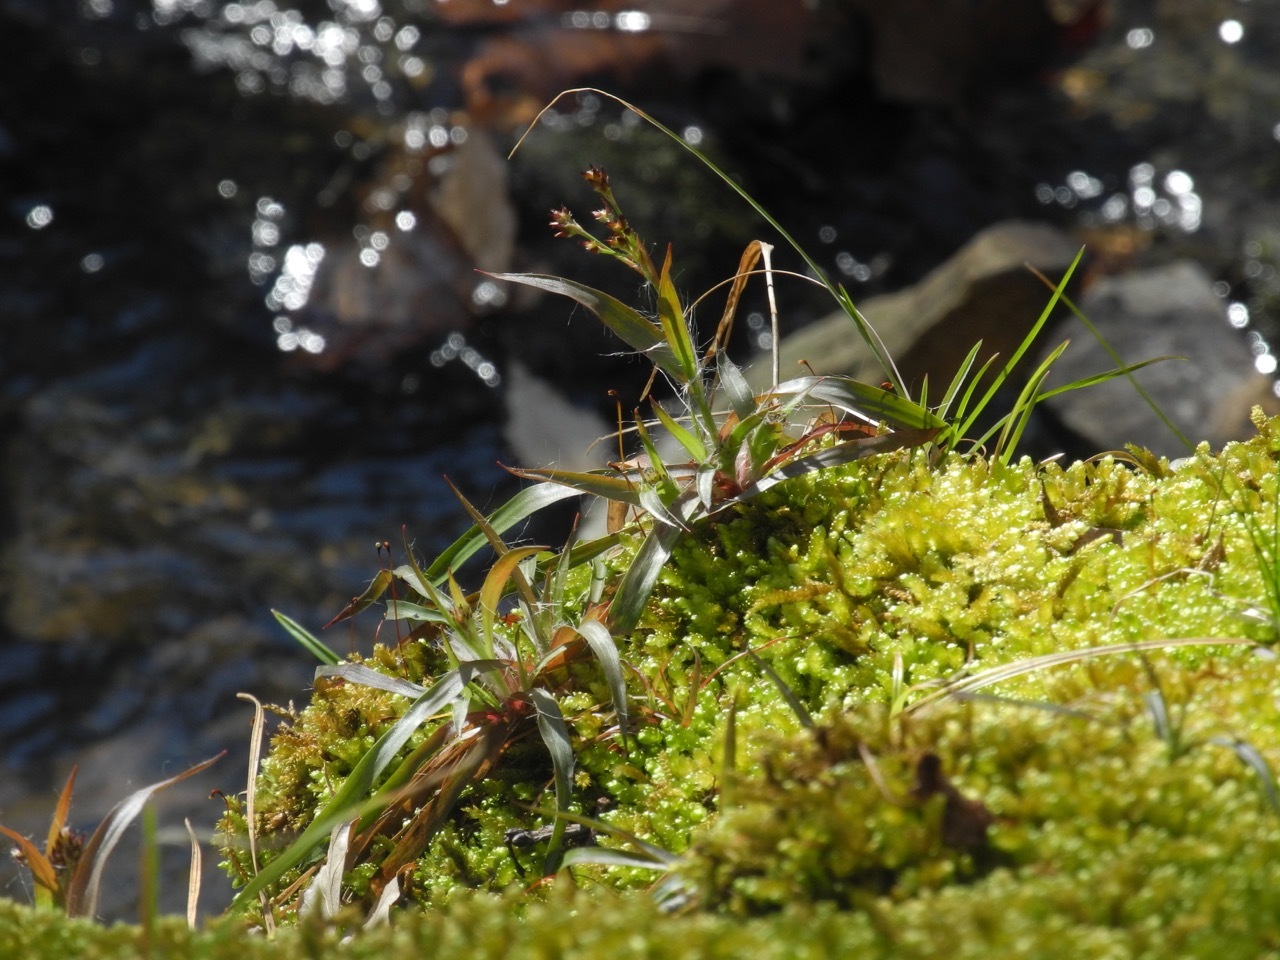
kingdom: Plantae
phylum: Tracheophyta
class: Liliopsida
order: Poales
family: Juncaceae
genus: Luzula
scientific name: Luzula echinata
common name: Hedgehog woodrush
